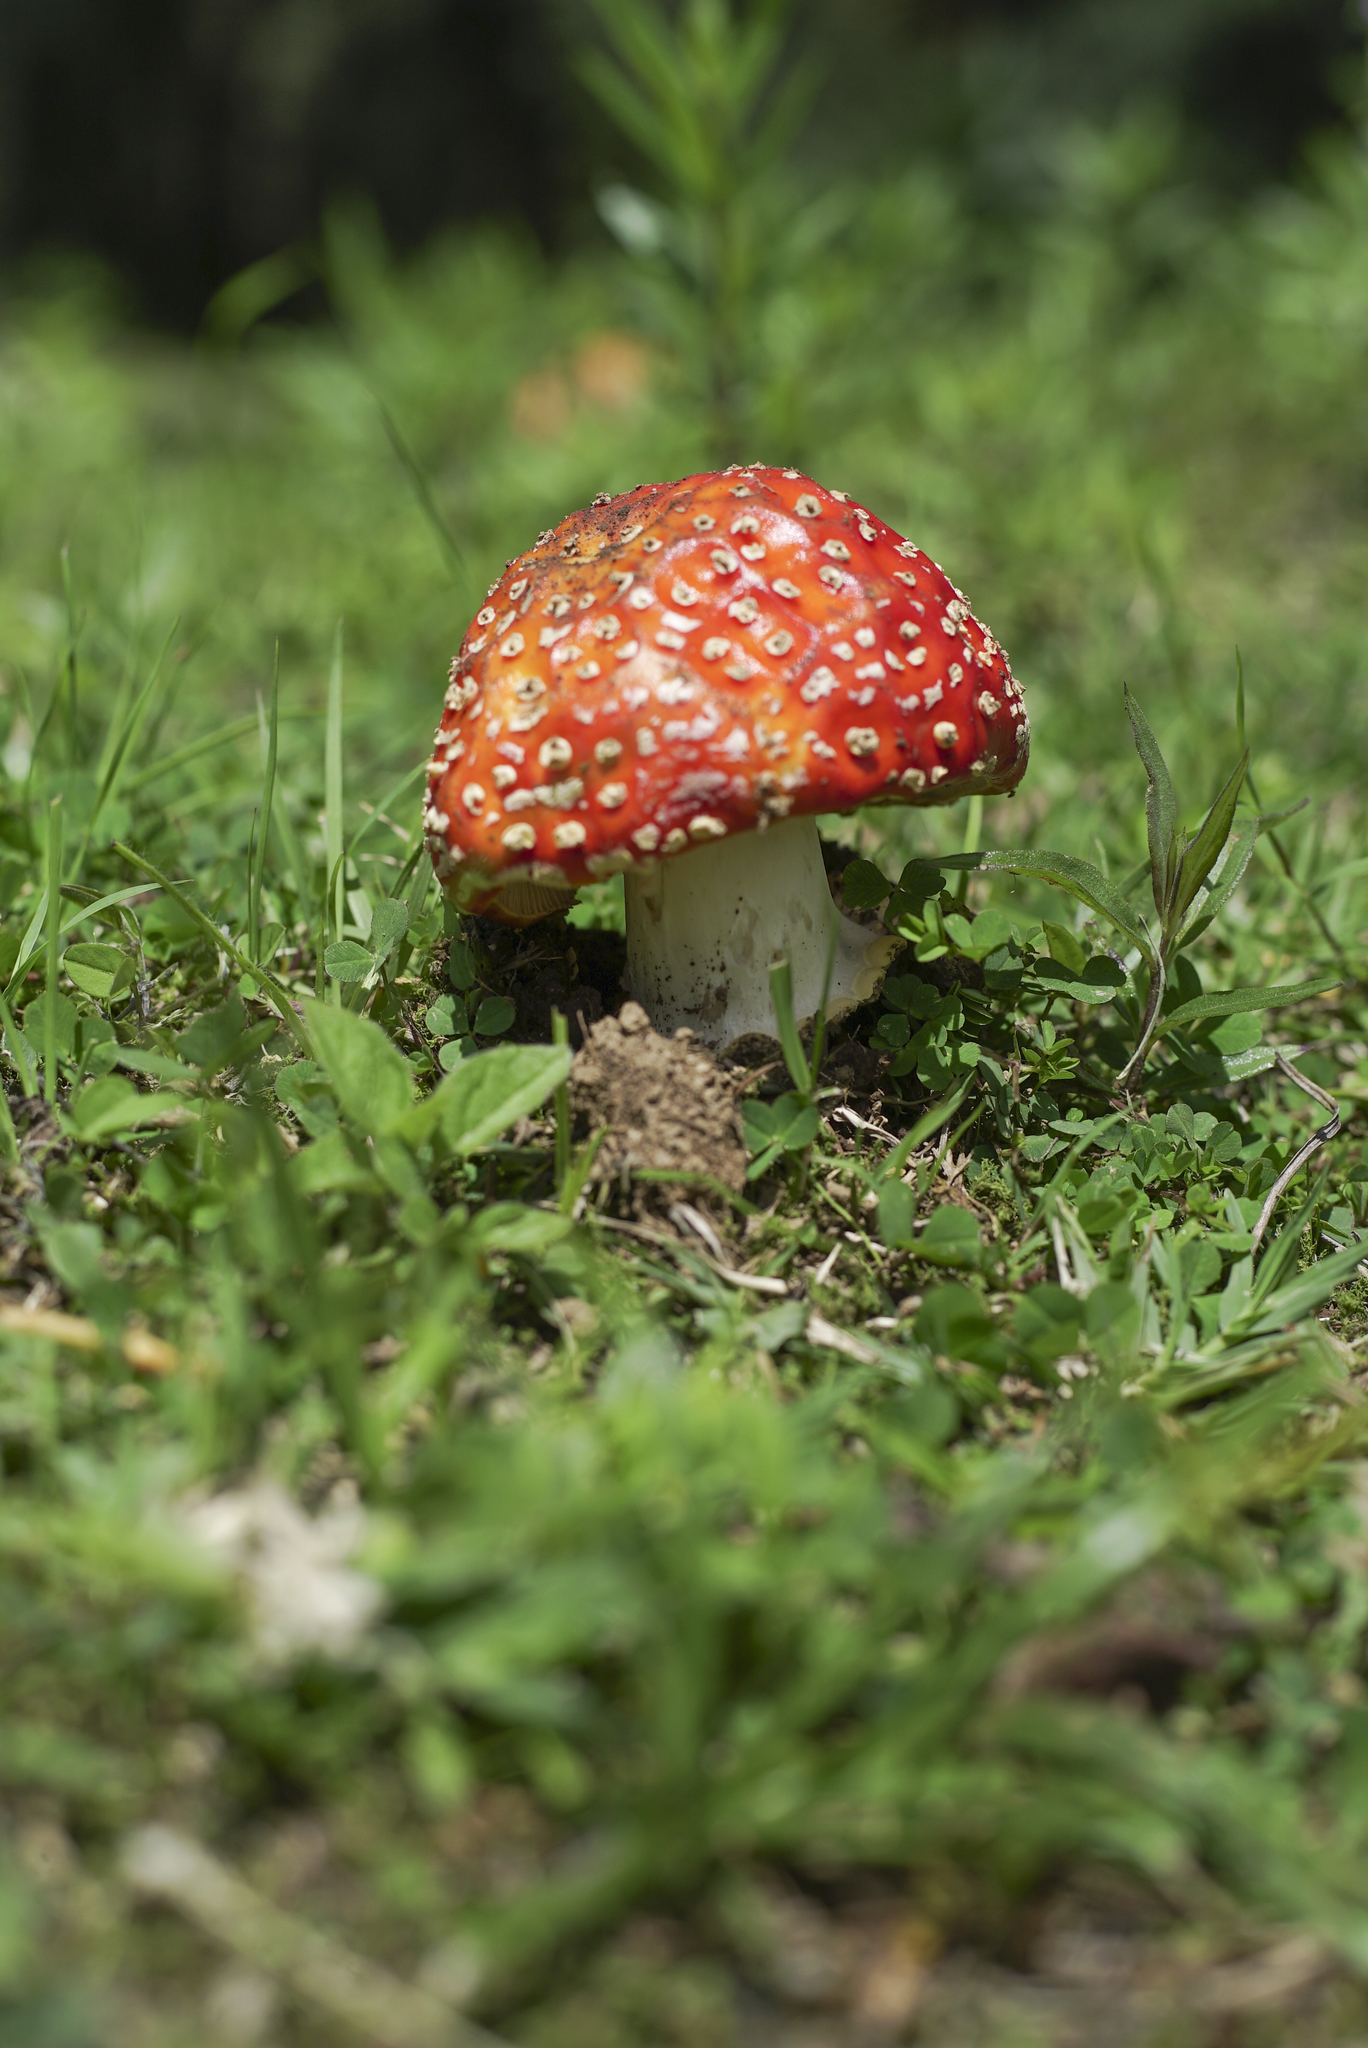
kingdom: Fungi
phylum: Basidiomycota
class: Agaricomycetes
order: Agaricales
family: Amanitaceae
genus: Amanita
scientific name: Amanita muscaria
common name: Fly agaric
